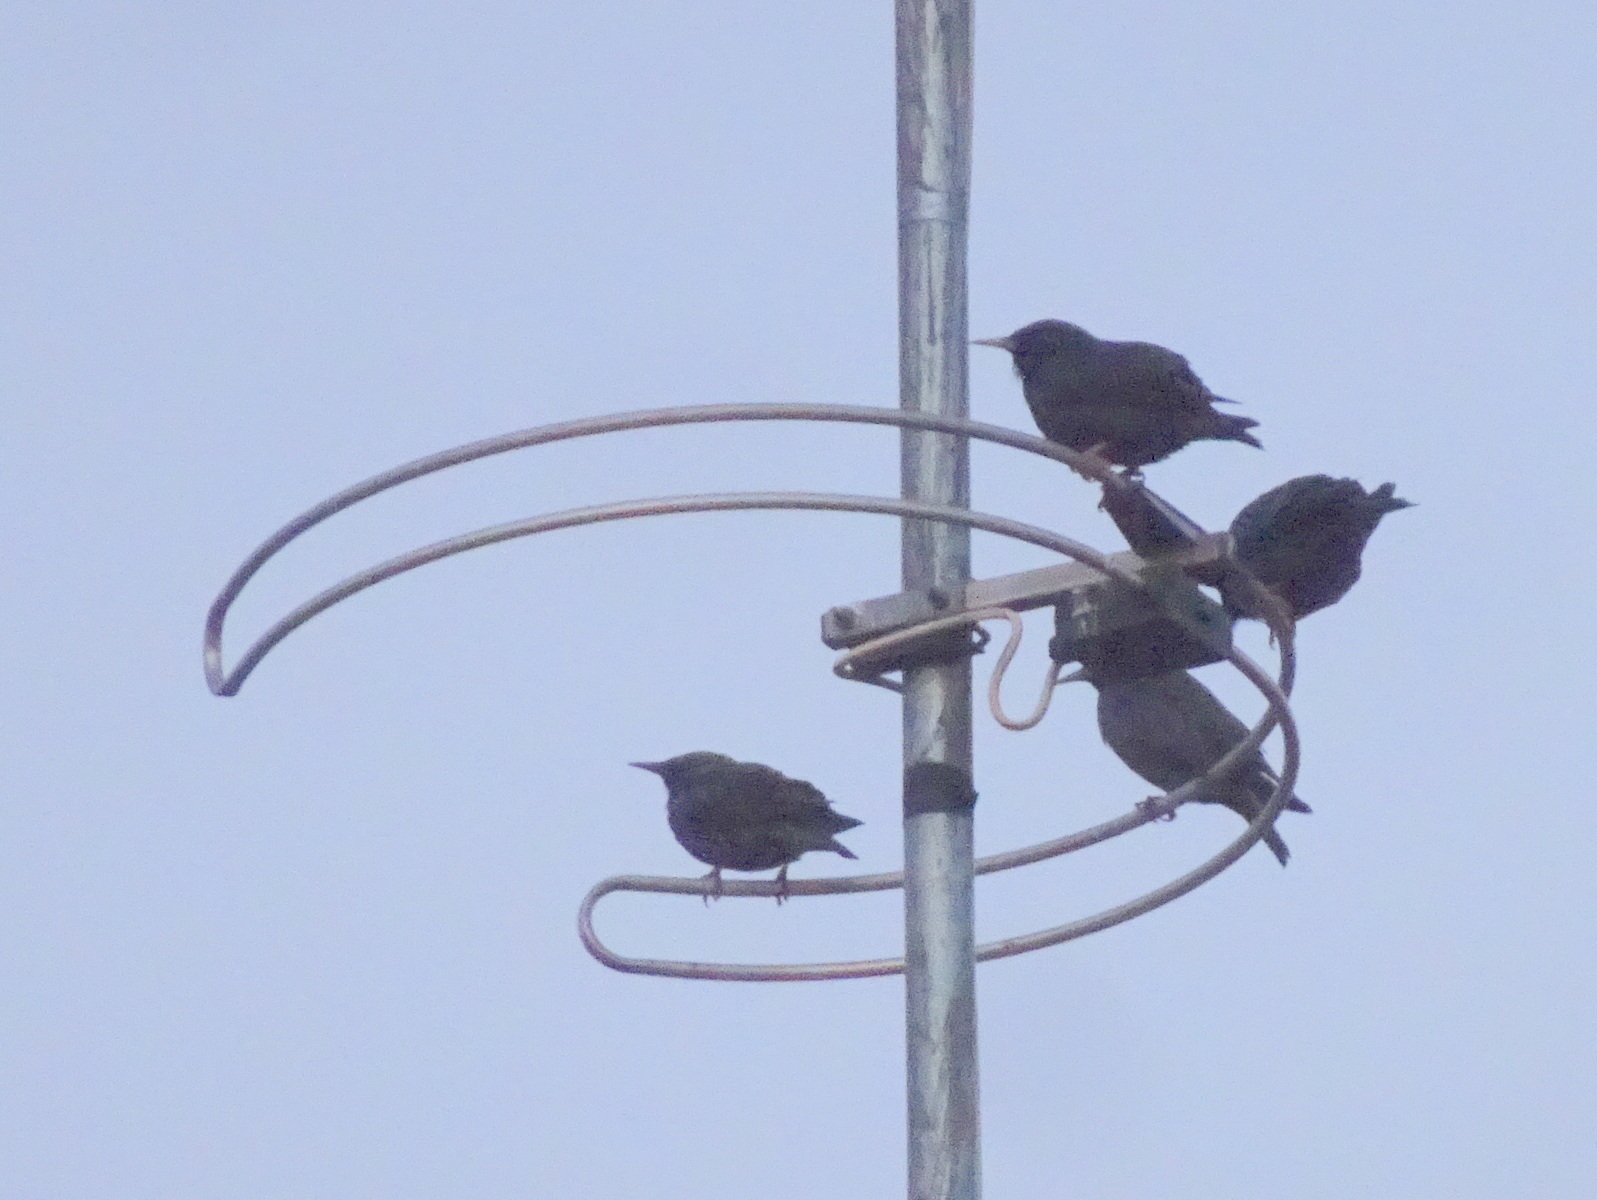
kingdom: Animalia
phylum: Chordata
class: Aves
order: Passeriformes
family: Sturnidae
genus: Sturnus
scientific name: Sturnus unicolor
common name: Spotless starling
